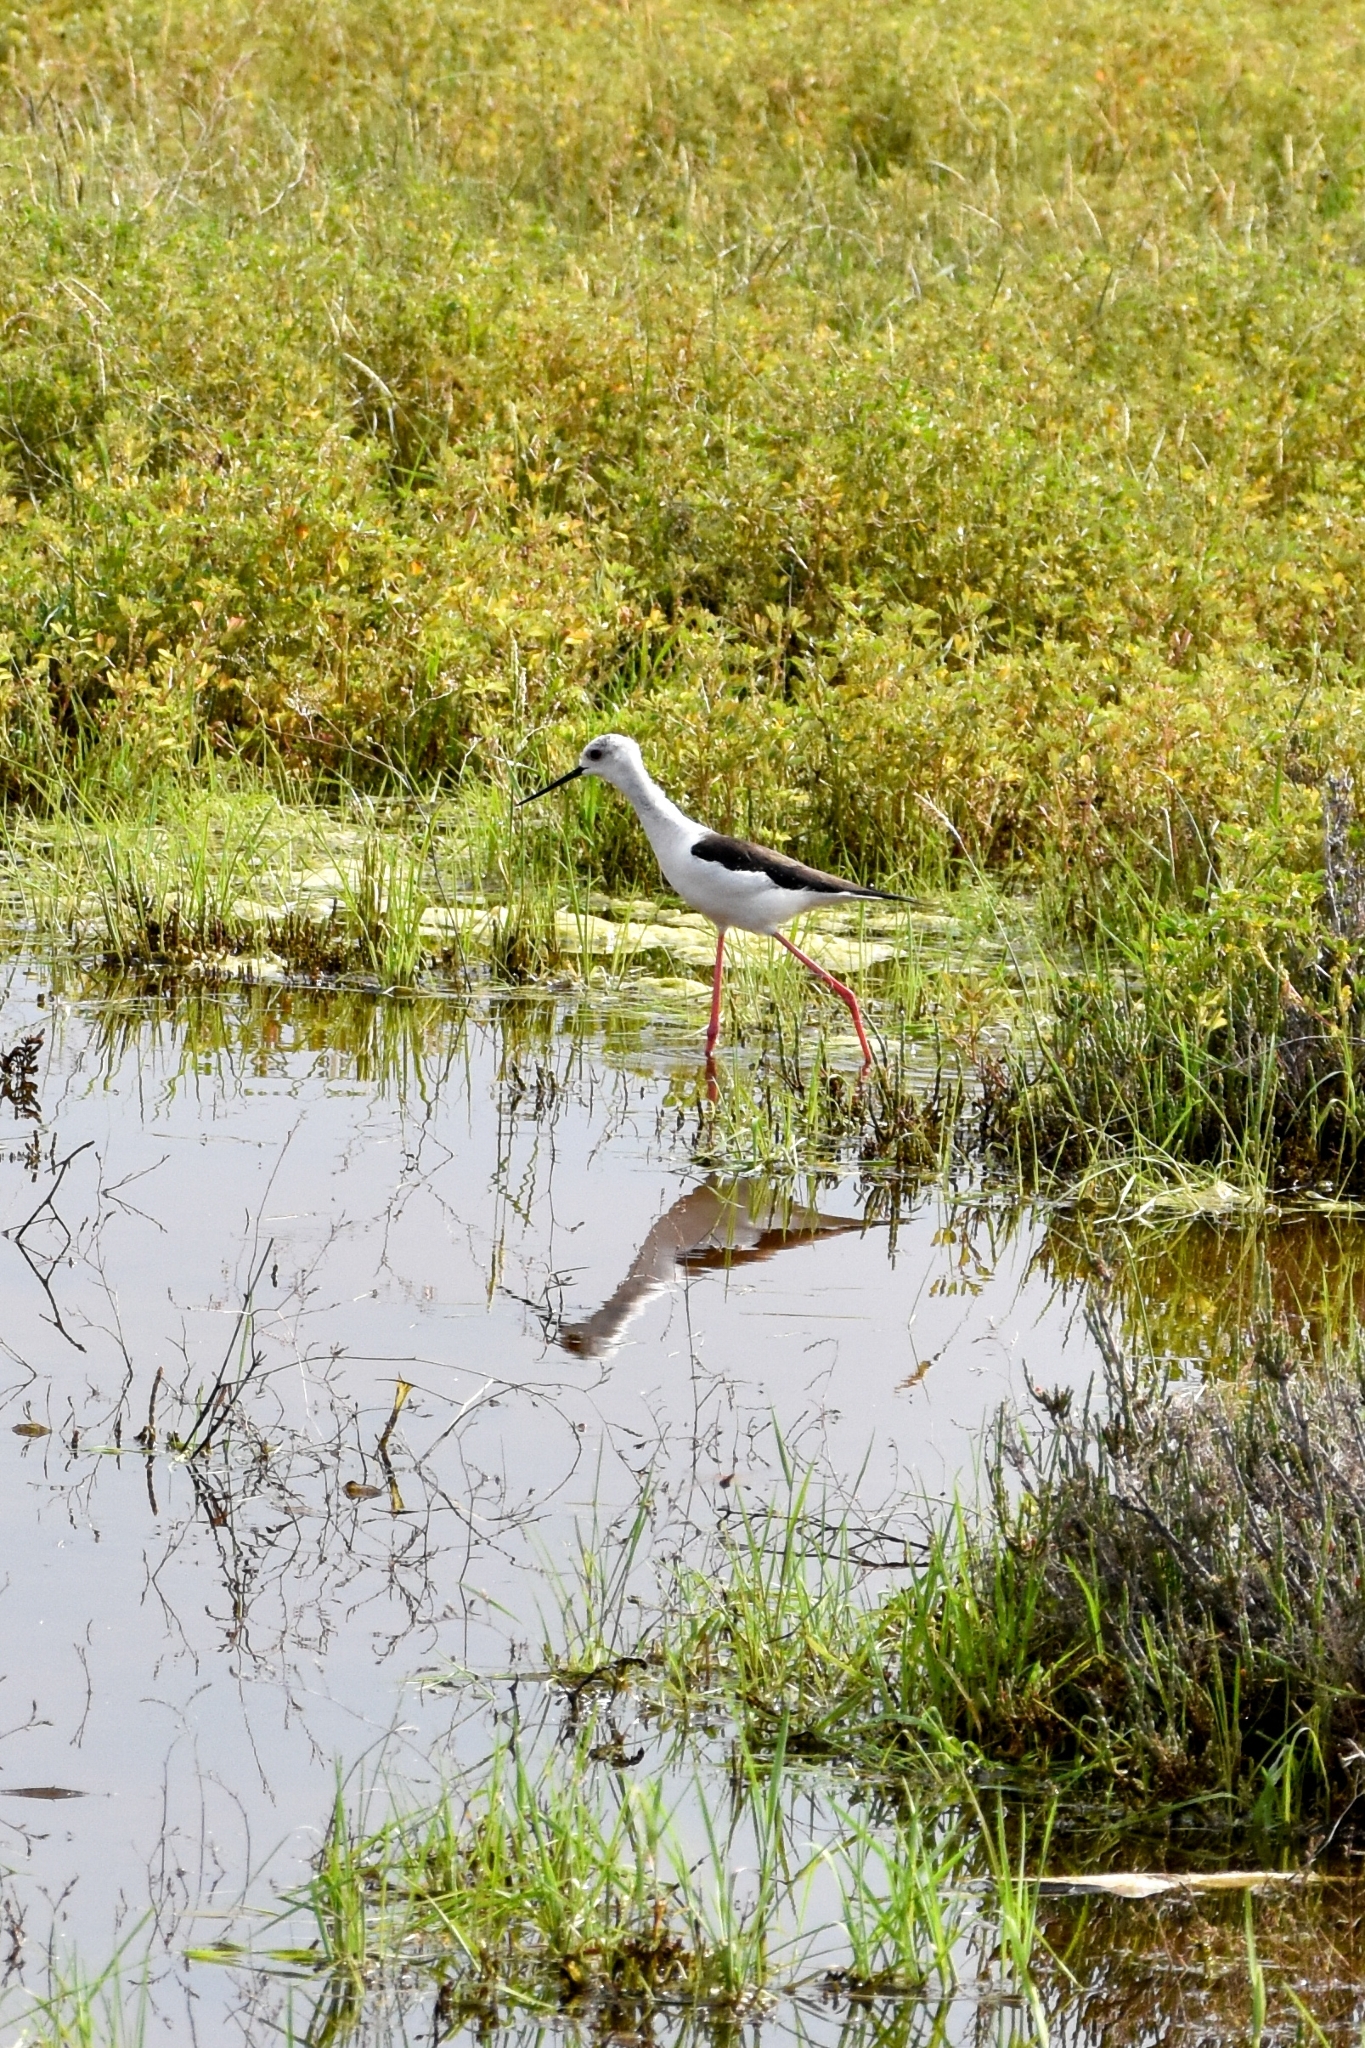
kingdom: Animalia
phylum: Chordata
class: Aves
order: Charadriiformes
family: Recurvirostridae
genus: Himantopus
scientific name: Himantopus himantopus
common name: Black-winged stilt
